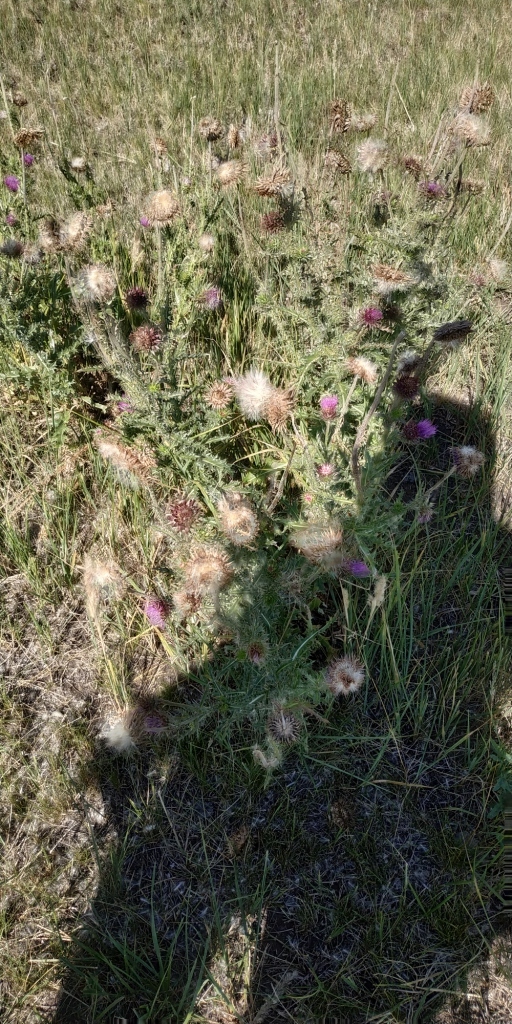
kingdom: Plantae
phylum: Tracheophyta
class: Magnoliopsida
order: Asterales
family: Asteraceae
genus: Carduus
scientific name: Carduus nutans
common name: Musk thistle
